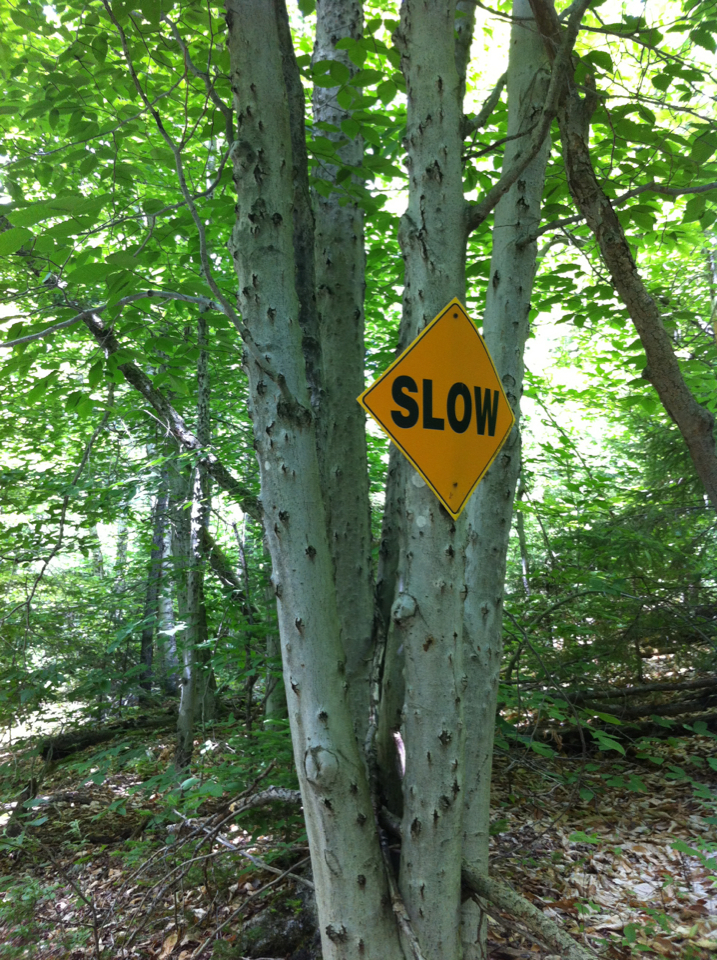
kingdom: Plantae
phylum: Tracheophyta
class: Magnoliopsida
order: Fagales
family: Fagaceae
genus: Fagus
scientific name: Fagus grandifolia
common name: American beech
